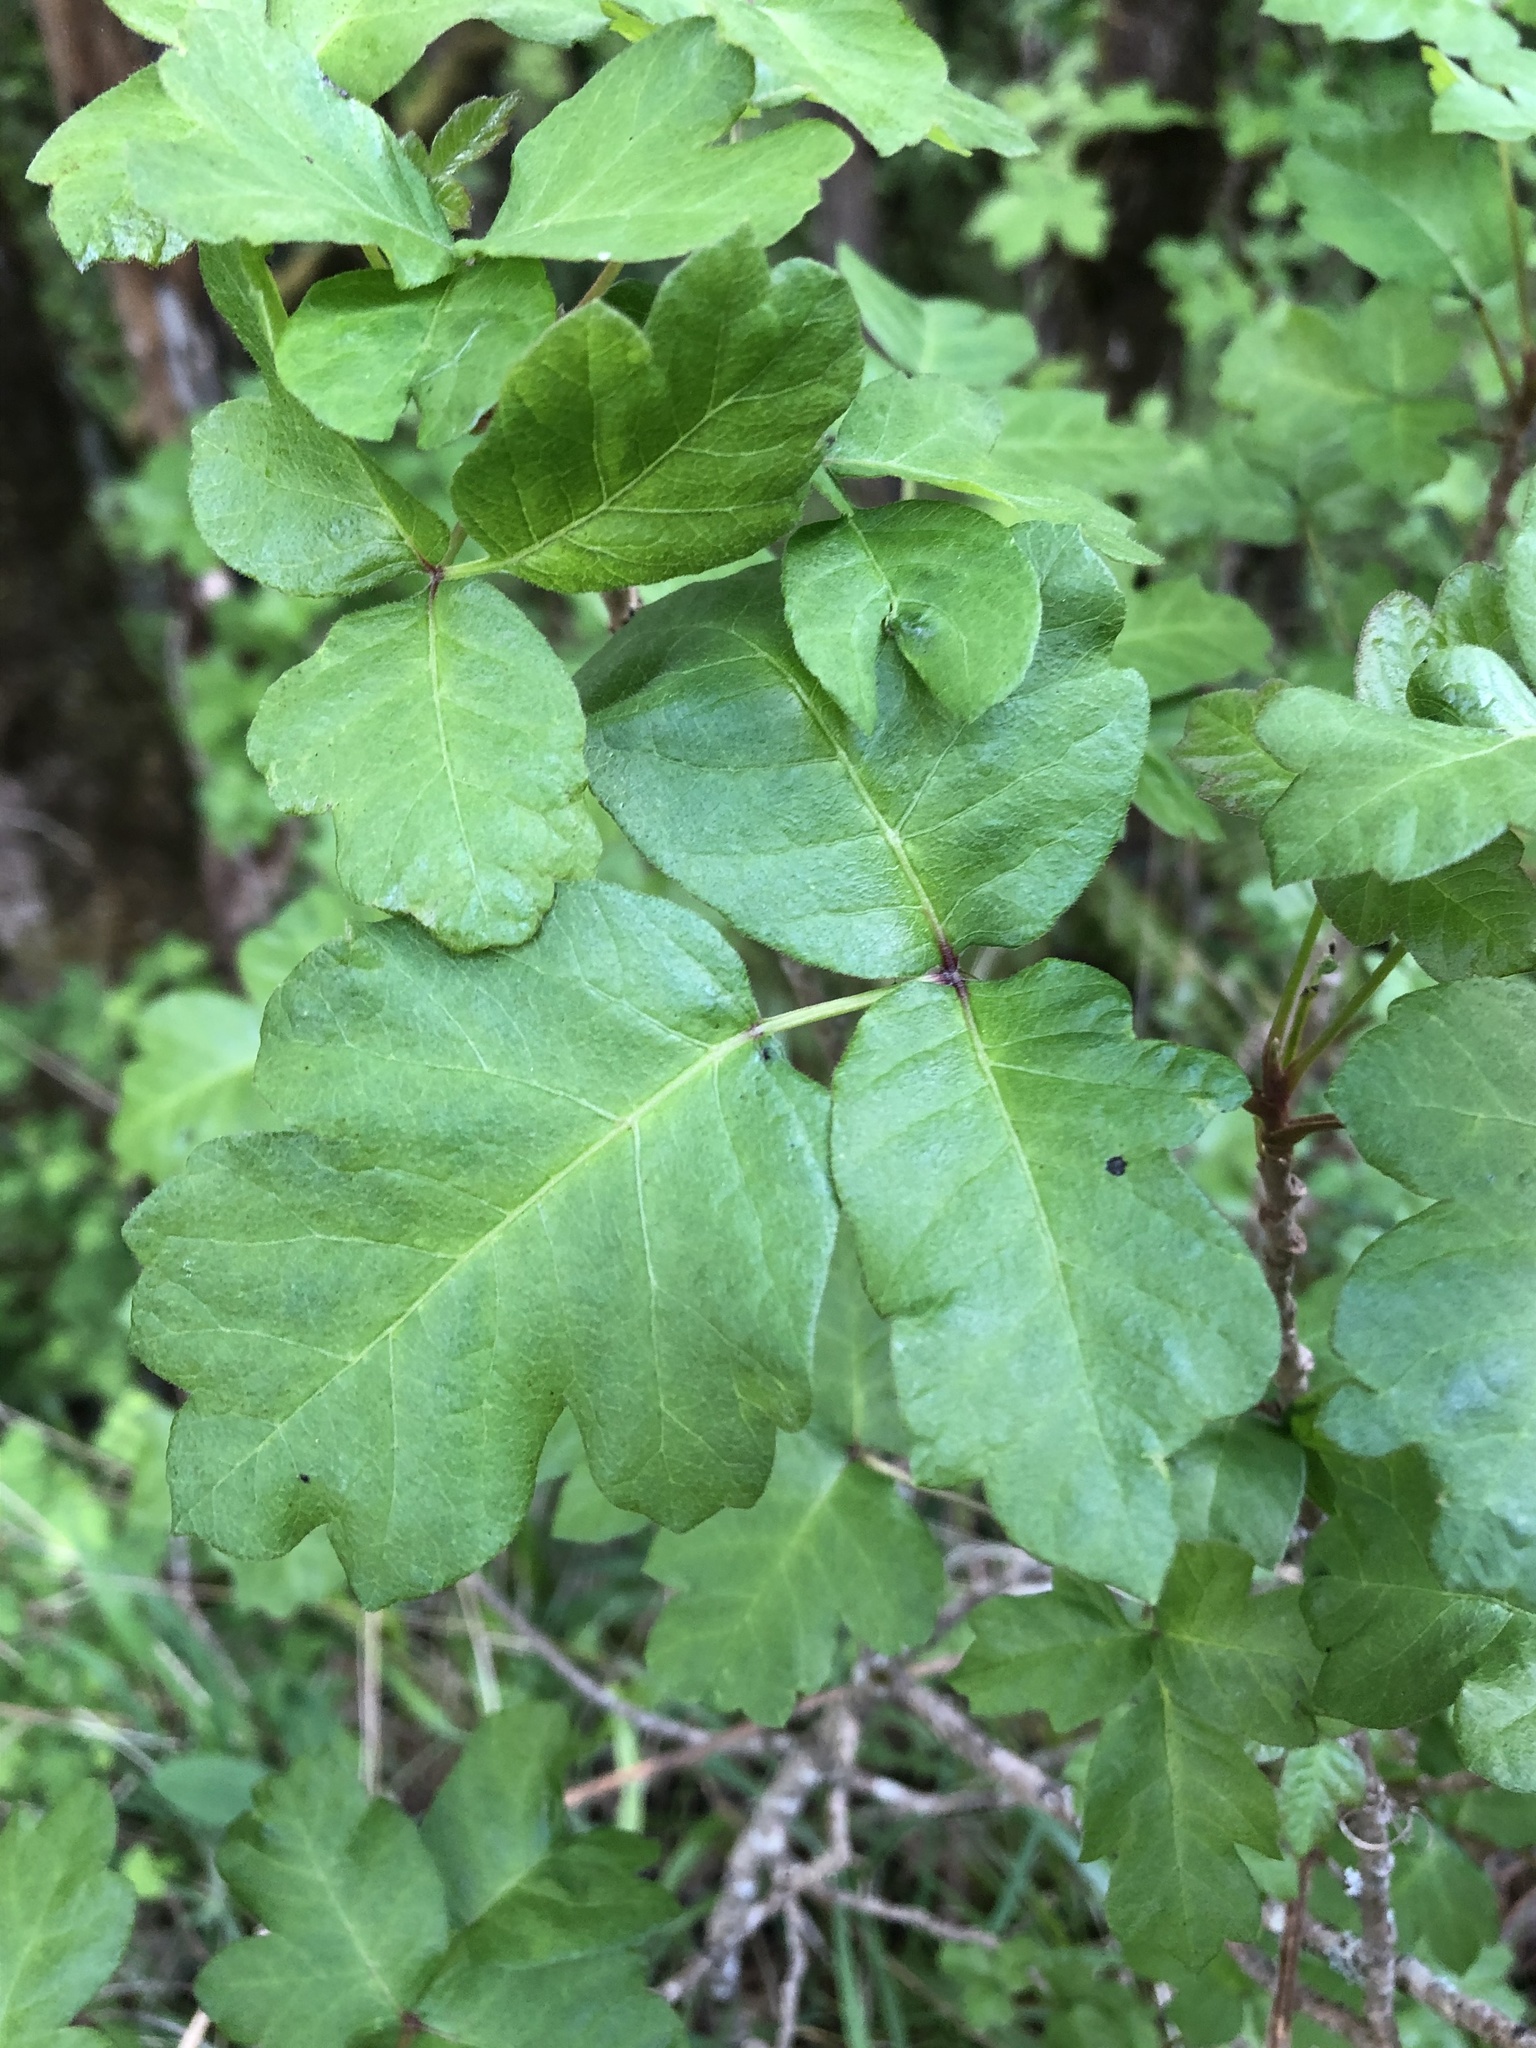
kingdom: Plantae
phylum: Tracheophyta
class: Magnoliopsida
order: Sapindales
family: Anacardiaceae
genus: Toxicodendron
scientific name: Toxicodendron diversilobum
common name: Pacific poison-oak
